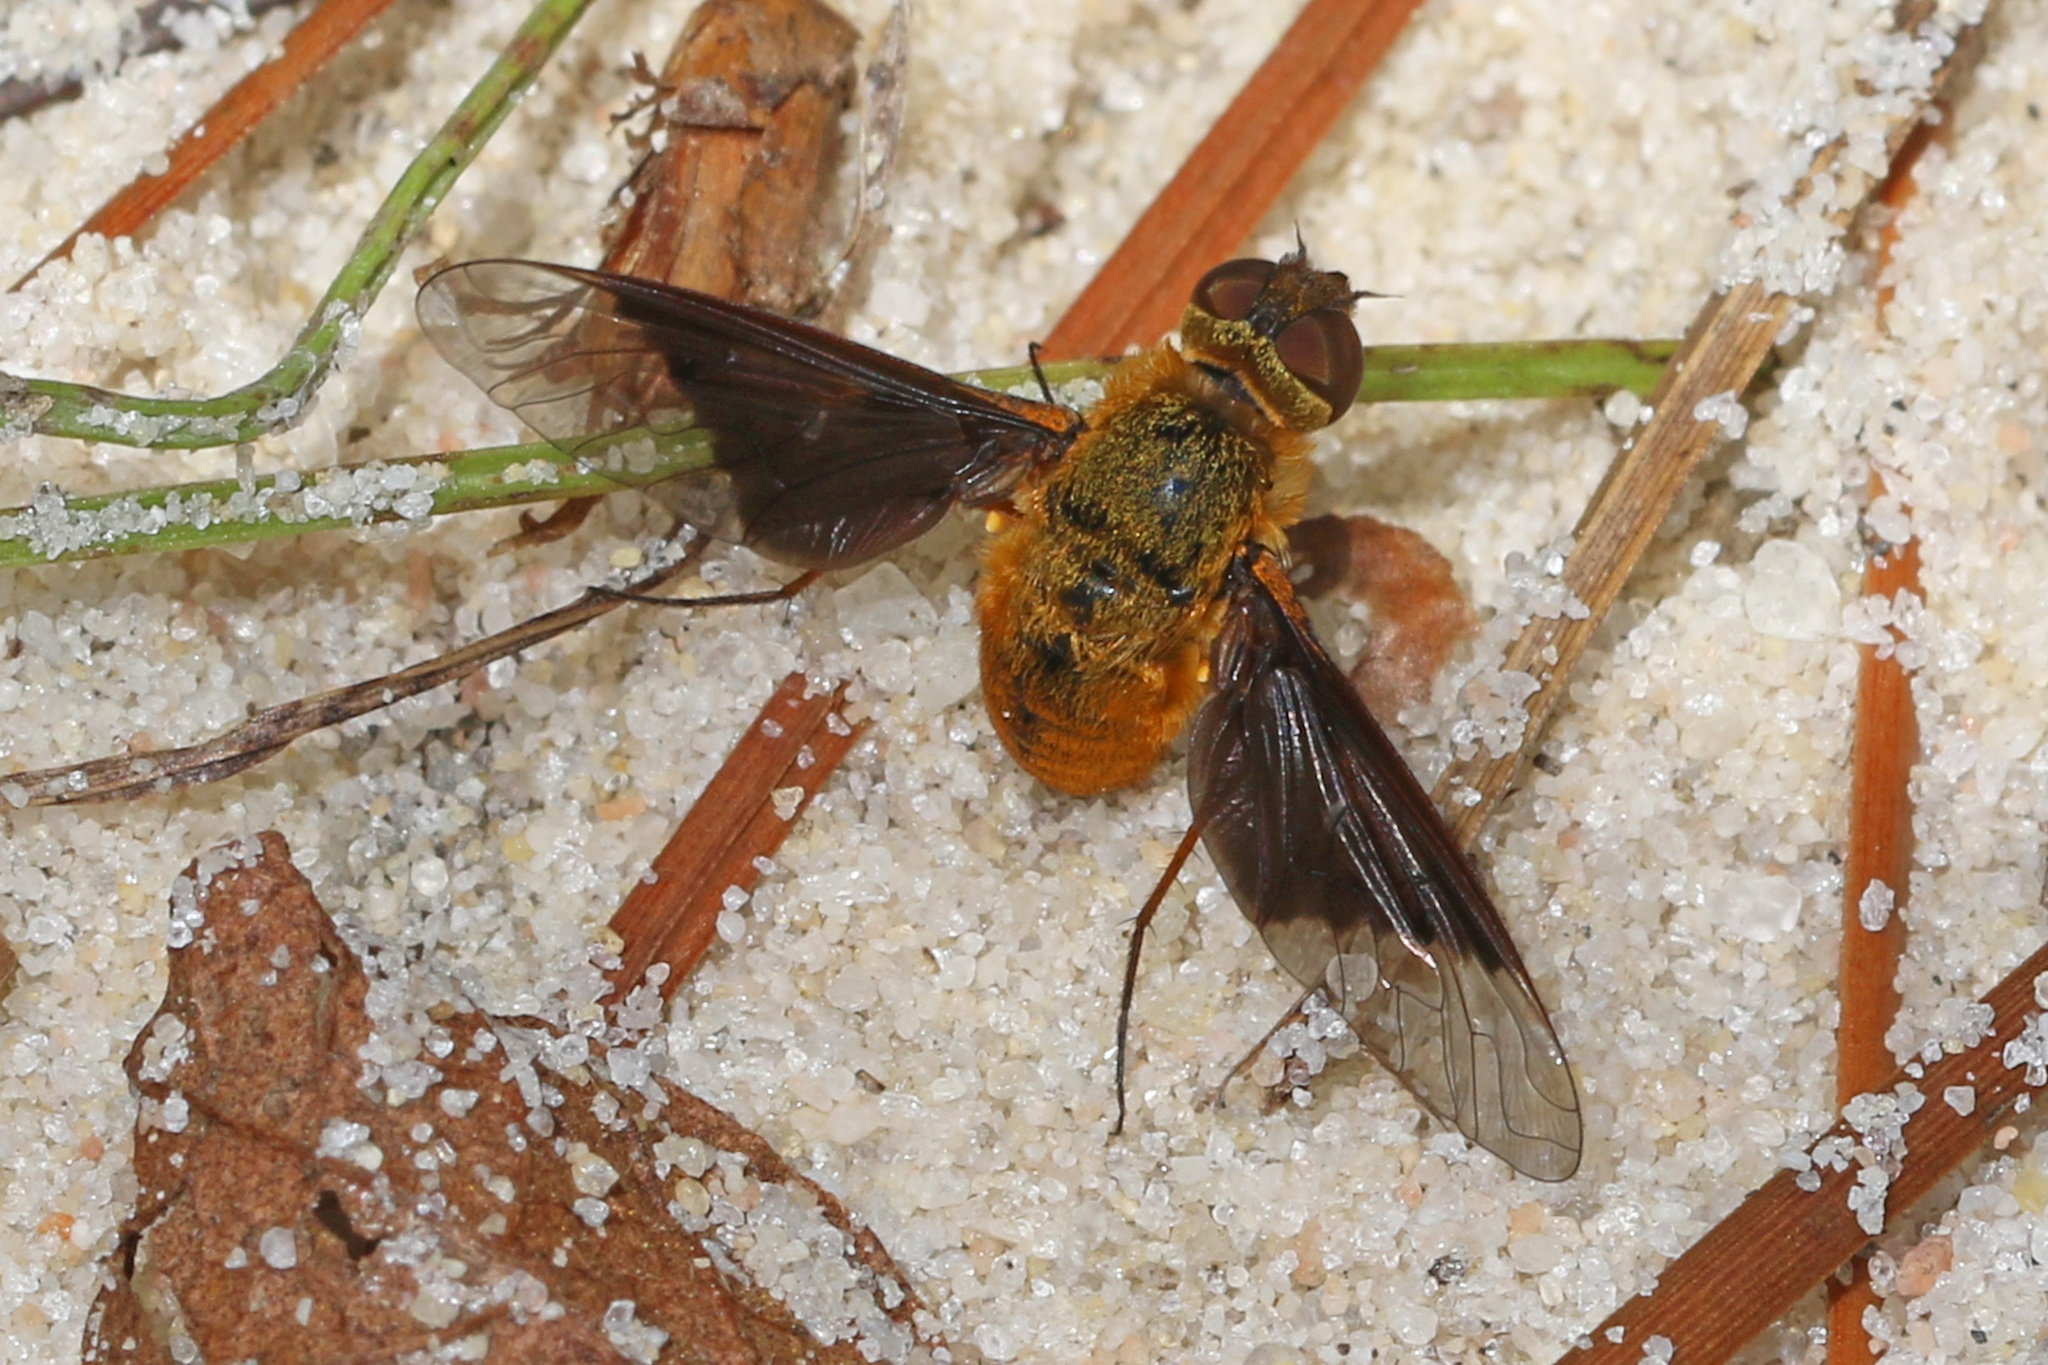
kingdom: Animalia
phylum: Arthropoda
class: Insecta
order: Diptera
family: Bombyliidae
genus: Chrysanthrax
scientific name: Chrysanthrax cypris
